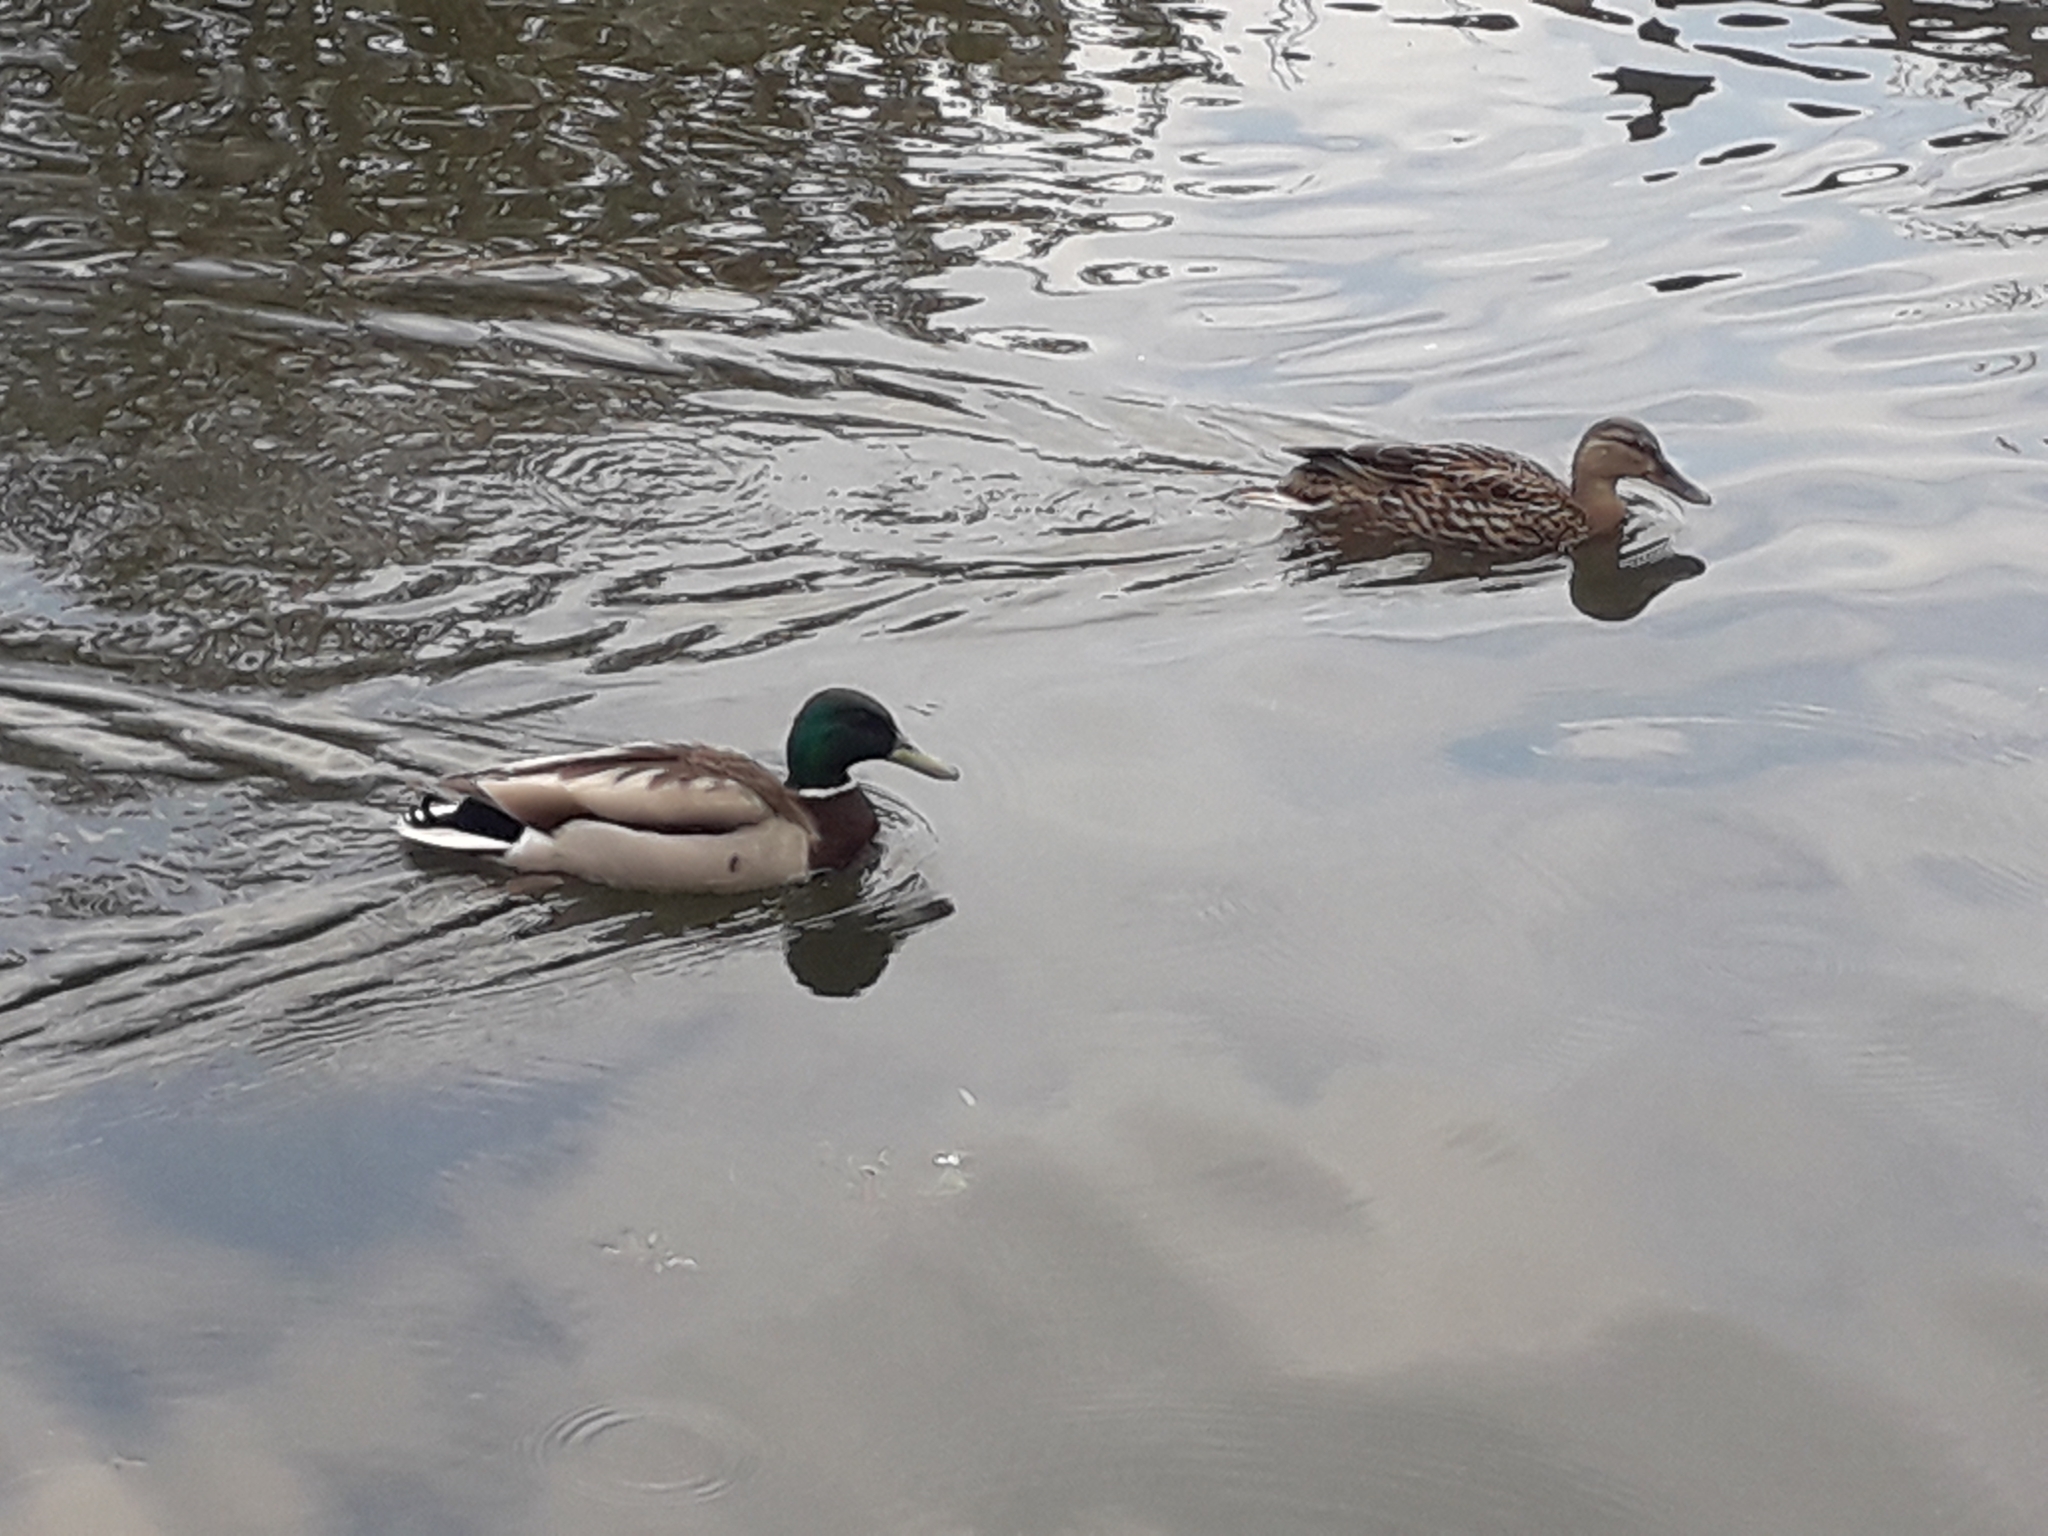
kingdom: Animalia
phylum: Chordata
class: Aves
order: Anseriformes
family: Anatidae
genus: Anas
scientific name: Anas platyrhynchos
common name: Mallard
